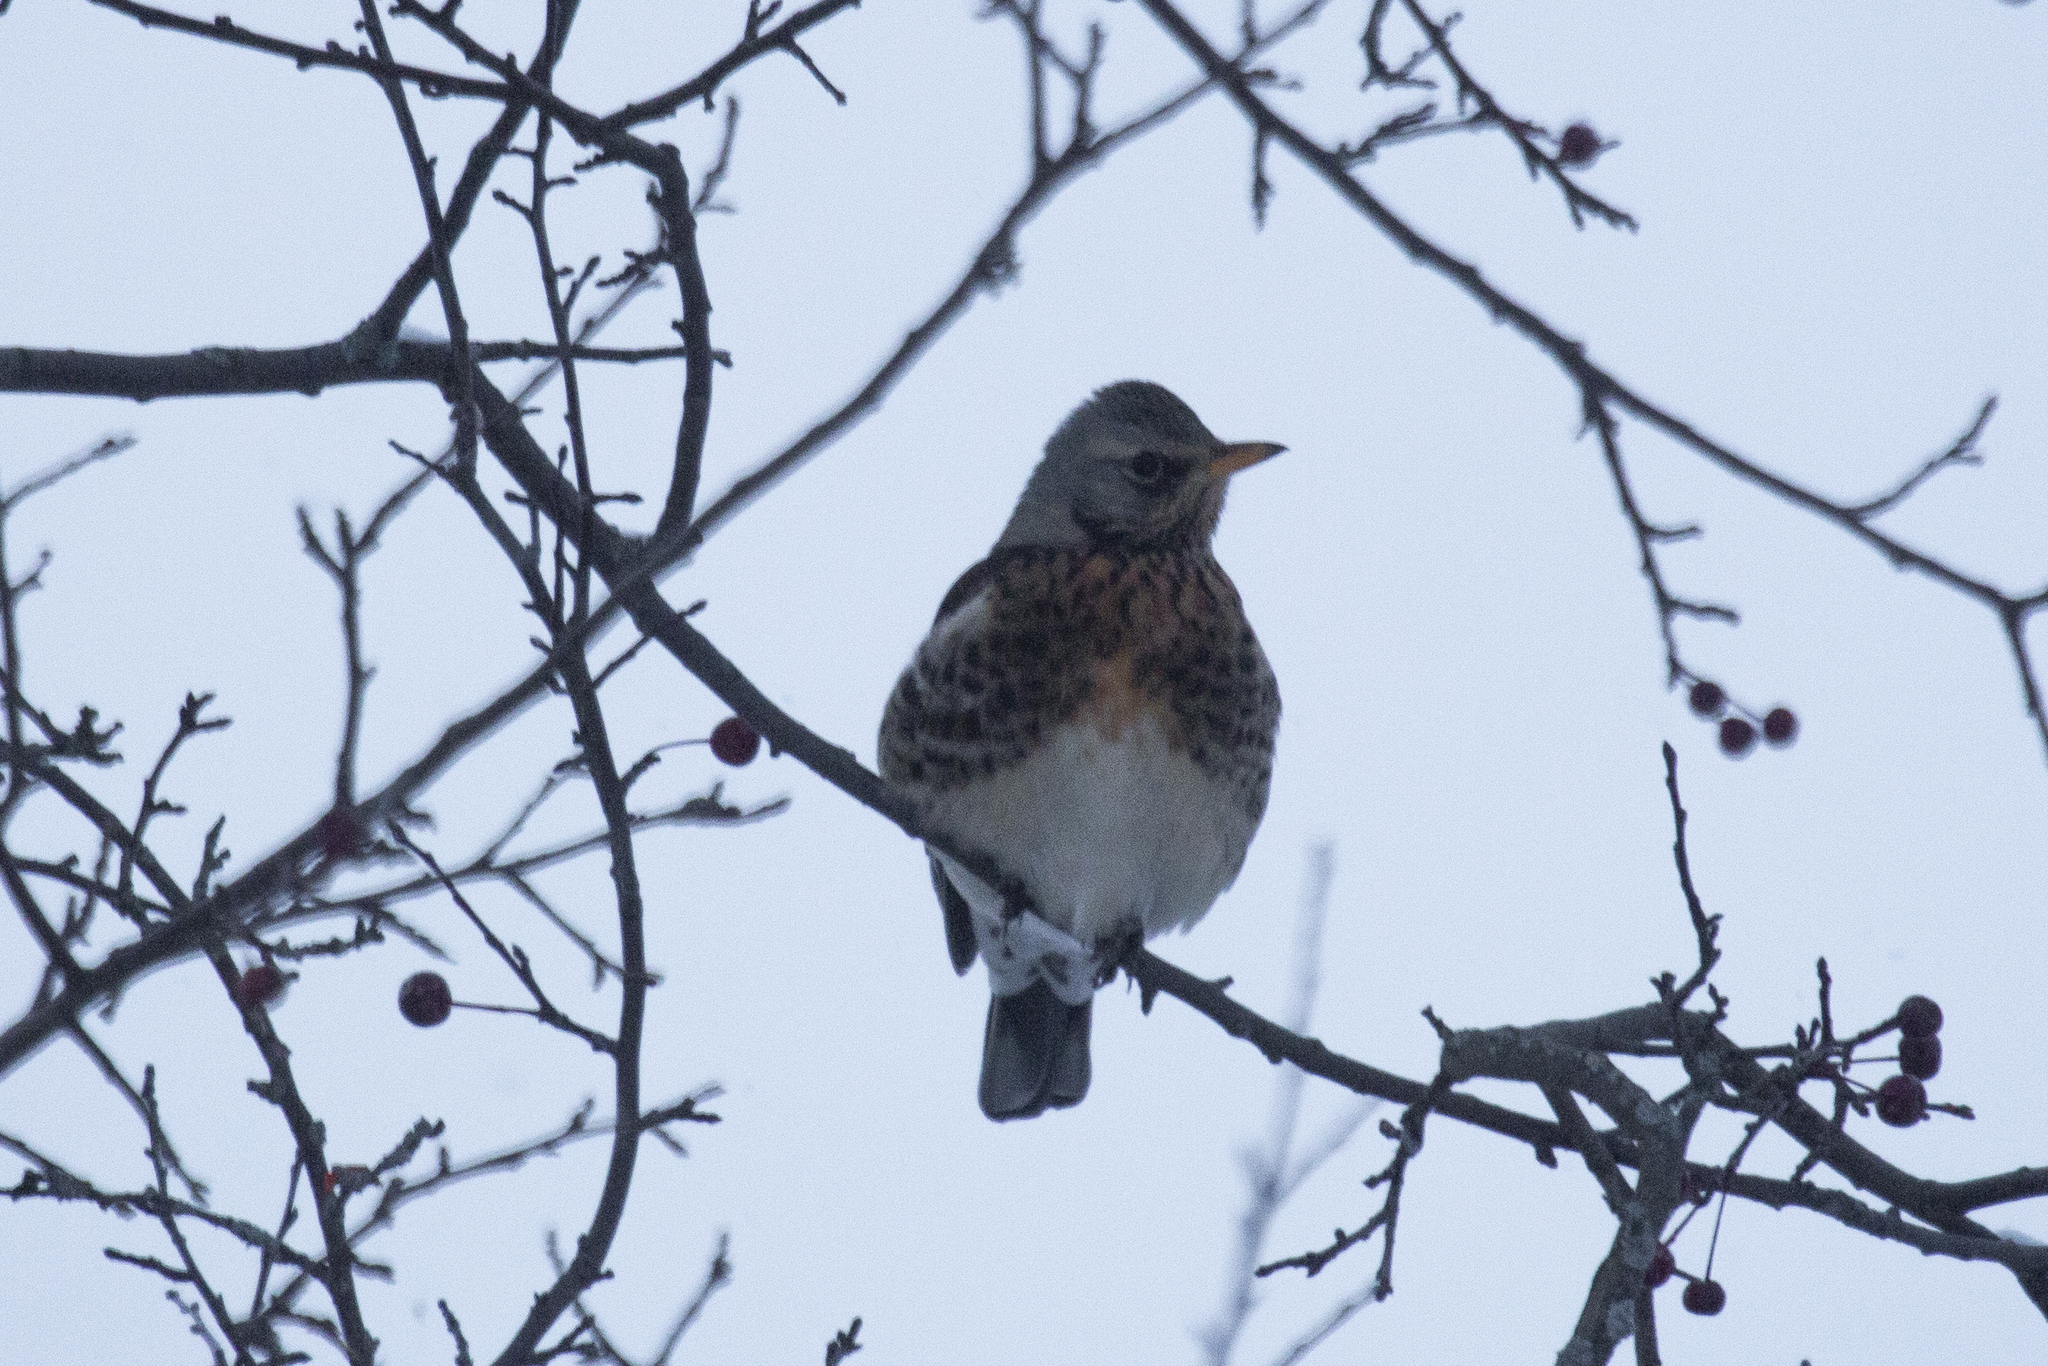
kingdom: Animalia
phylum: Chordata
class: Aves
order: Passeriformes
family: Turdidae
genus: Turdus
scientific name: Turdus pilaris
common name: Fieldfare
